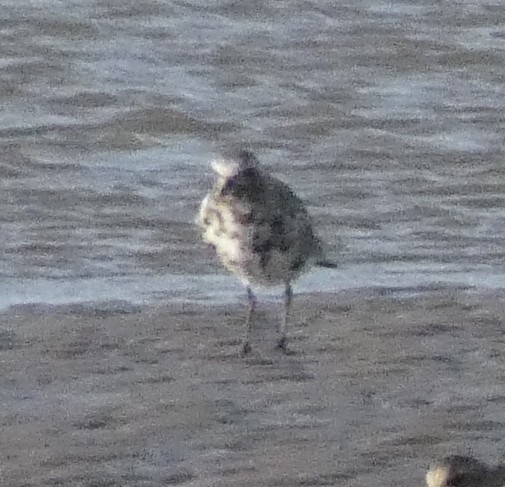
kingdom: Animalia
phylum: Chordata
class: Aves
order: Charadriiformes
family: Charadriidae
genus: Pluvialis
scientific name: Pluvialis squatarola
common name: Grey plover
